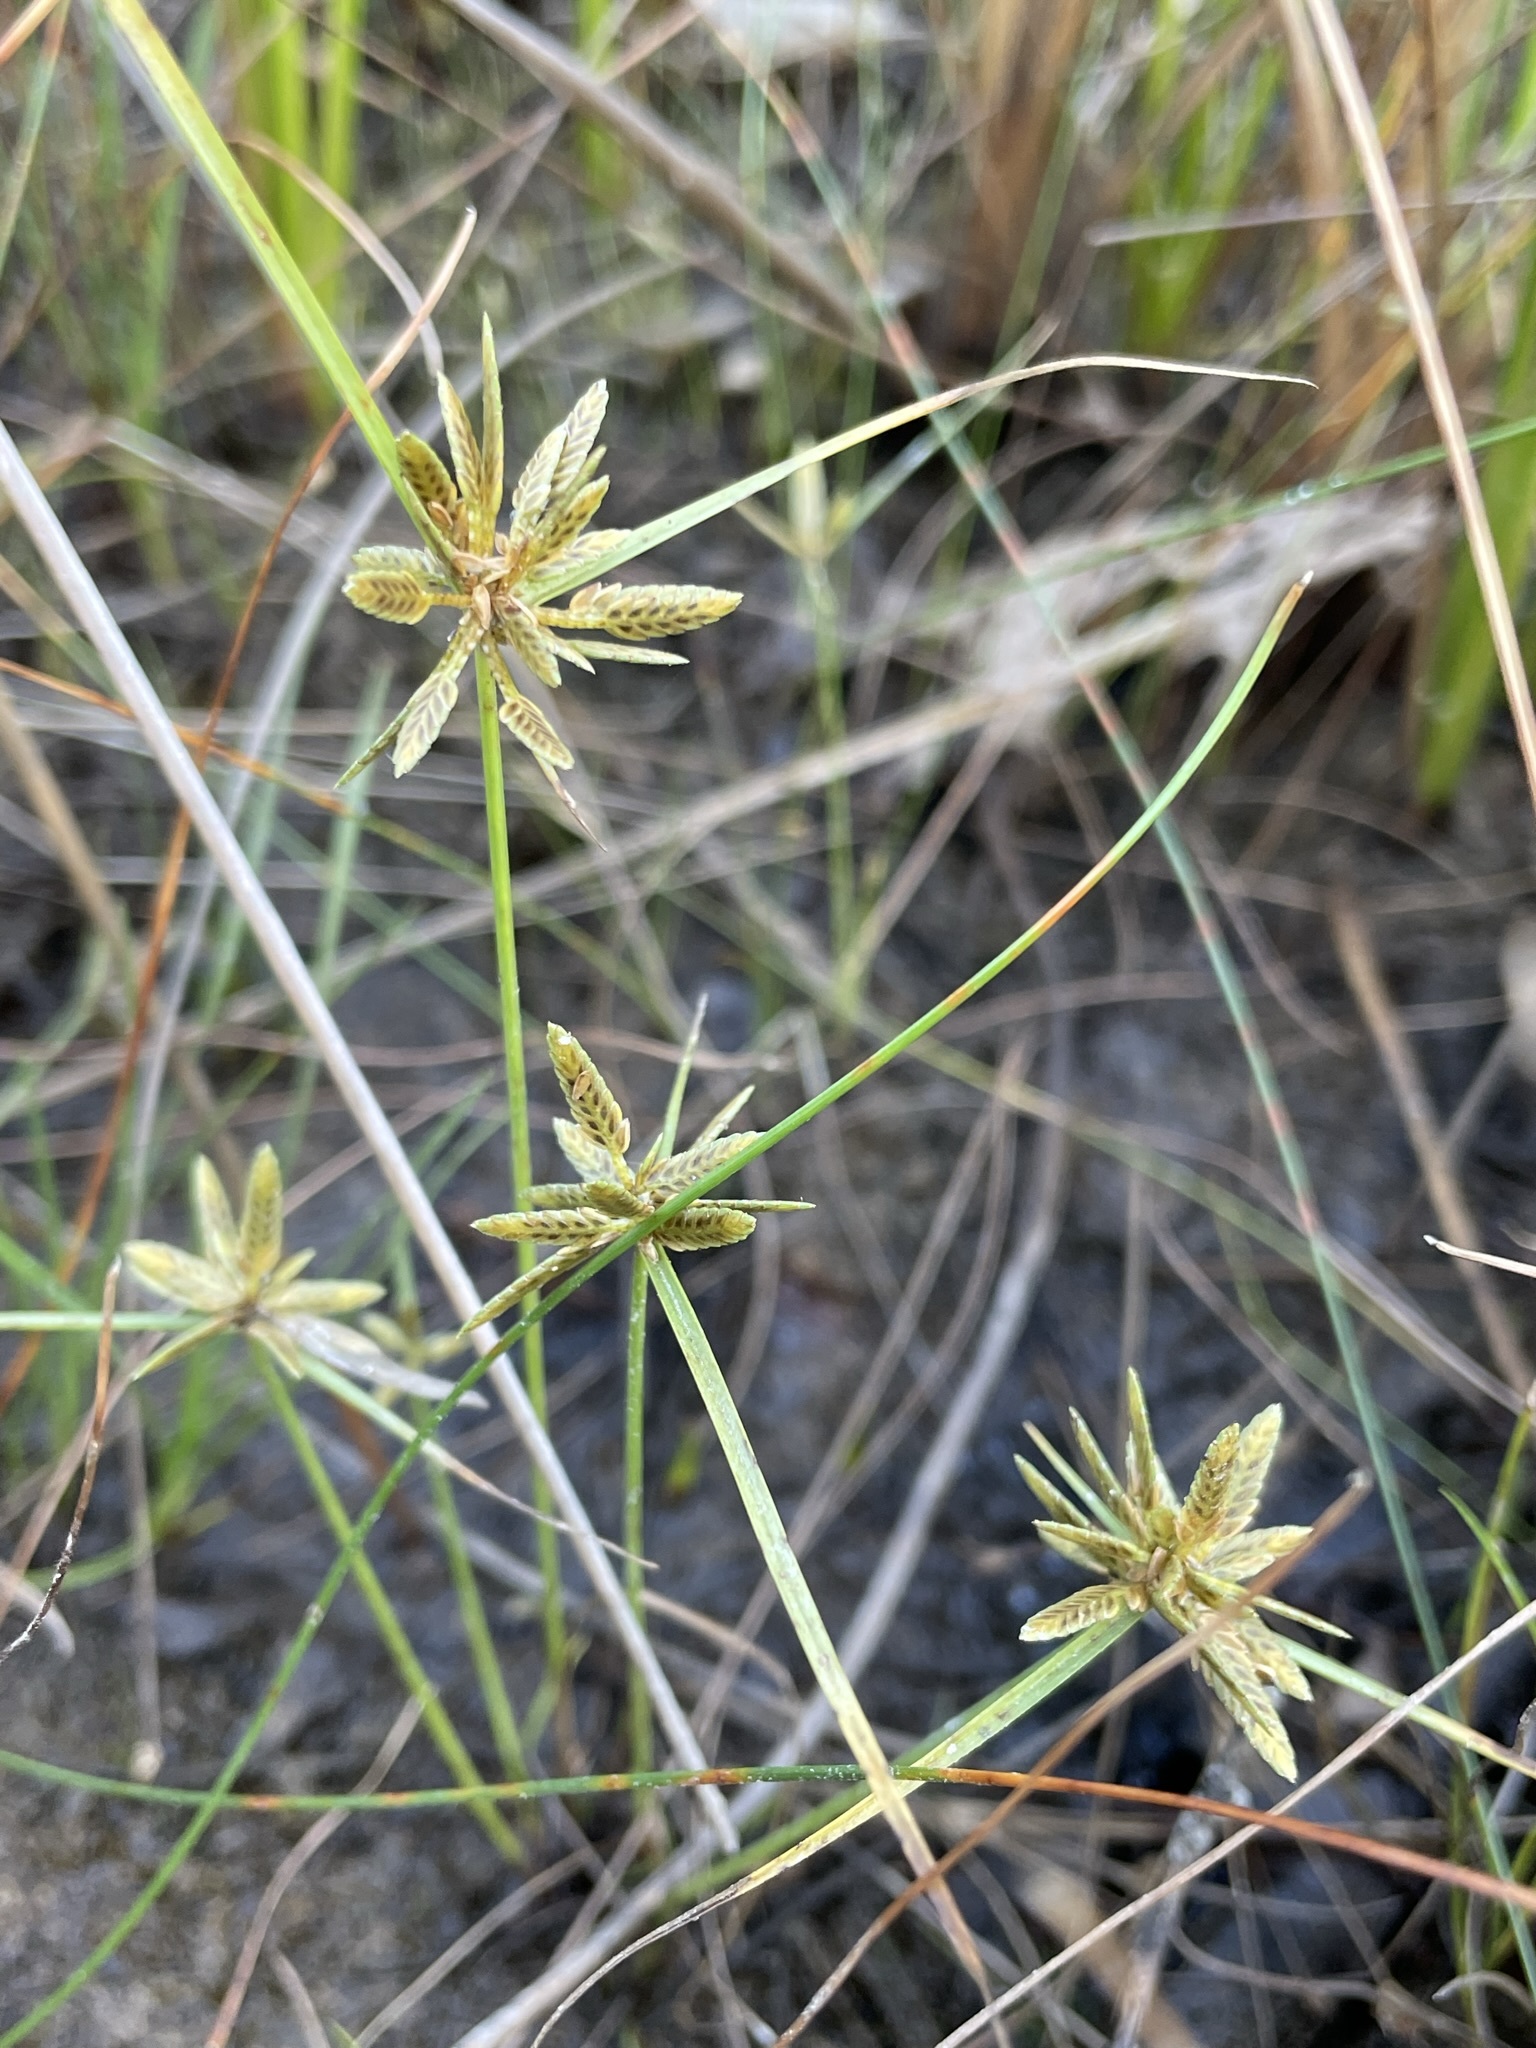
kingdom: Plantae
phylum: Tracheophyta
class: Liliopsida
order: Poales
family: Cyperaceae
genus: Cyperus
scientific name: Cyperus bipartitus
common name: Brook flatsedge
